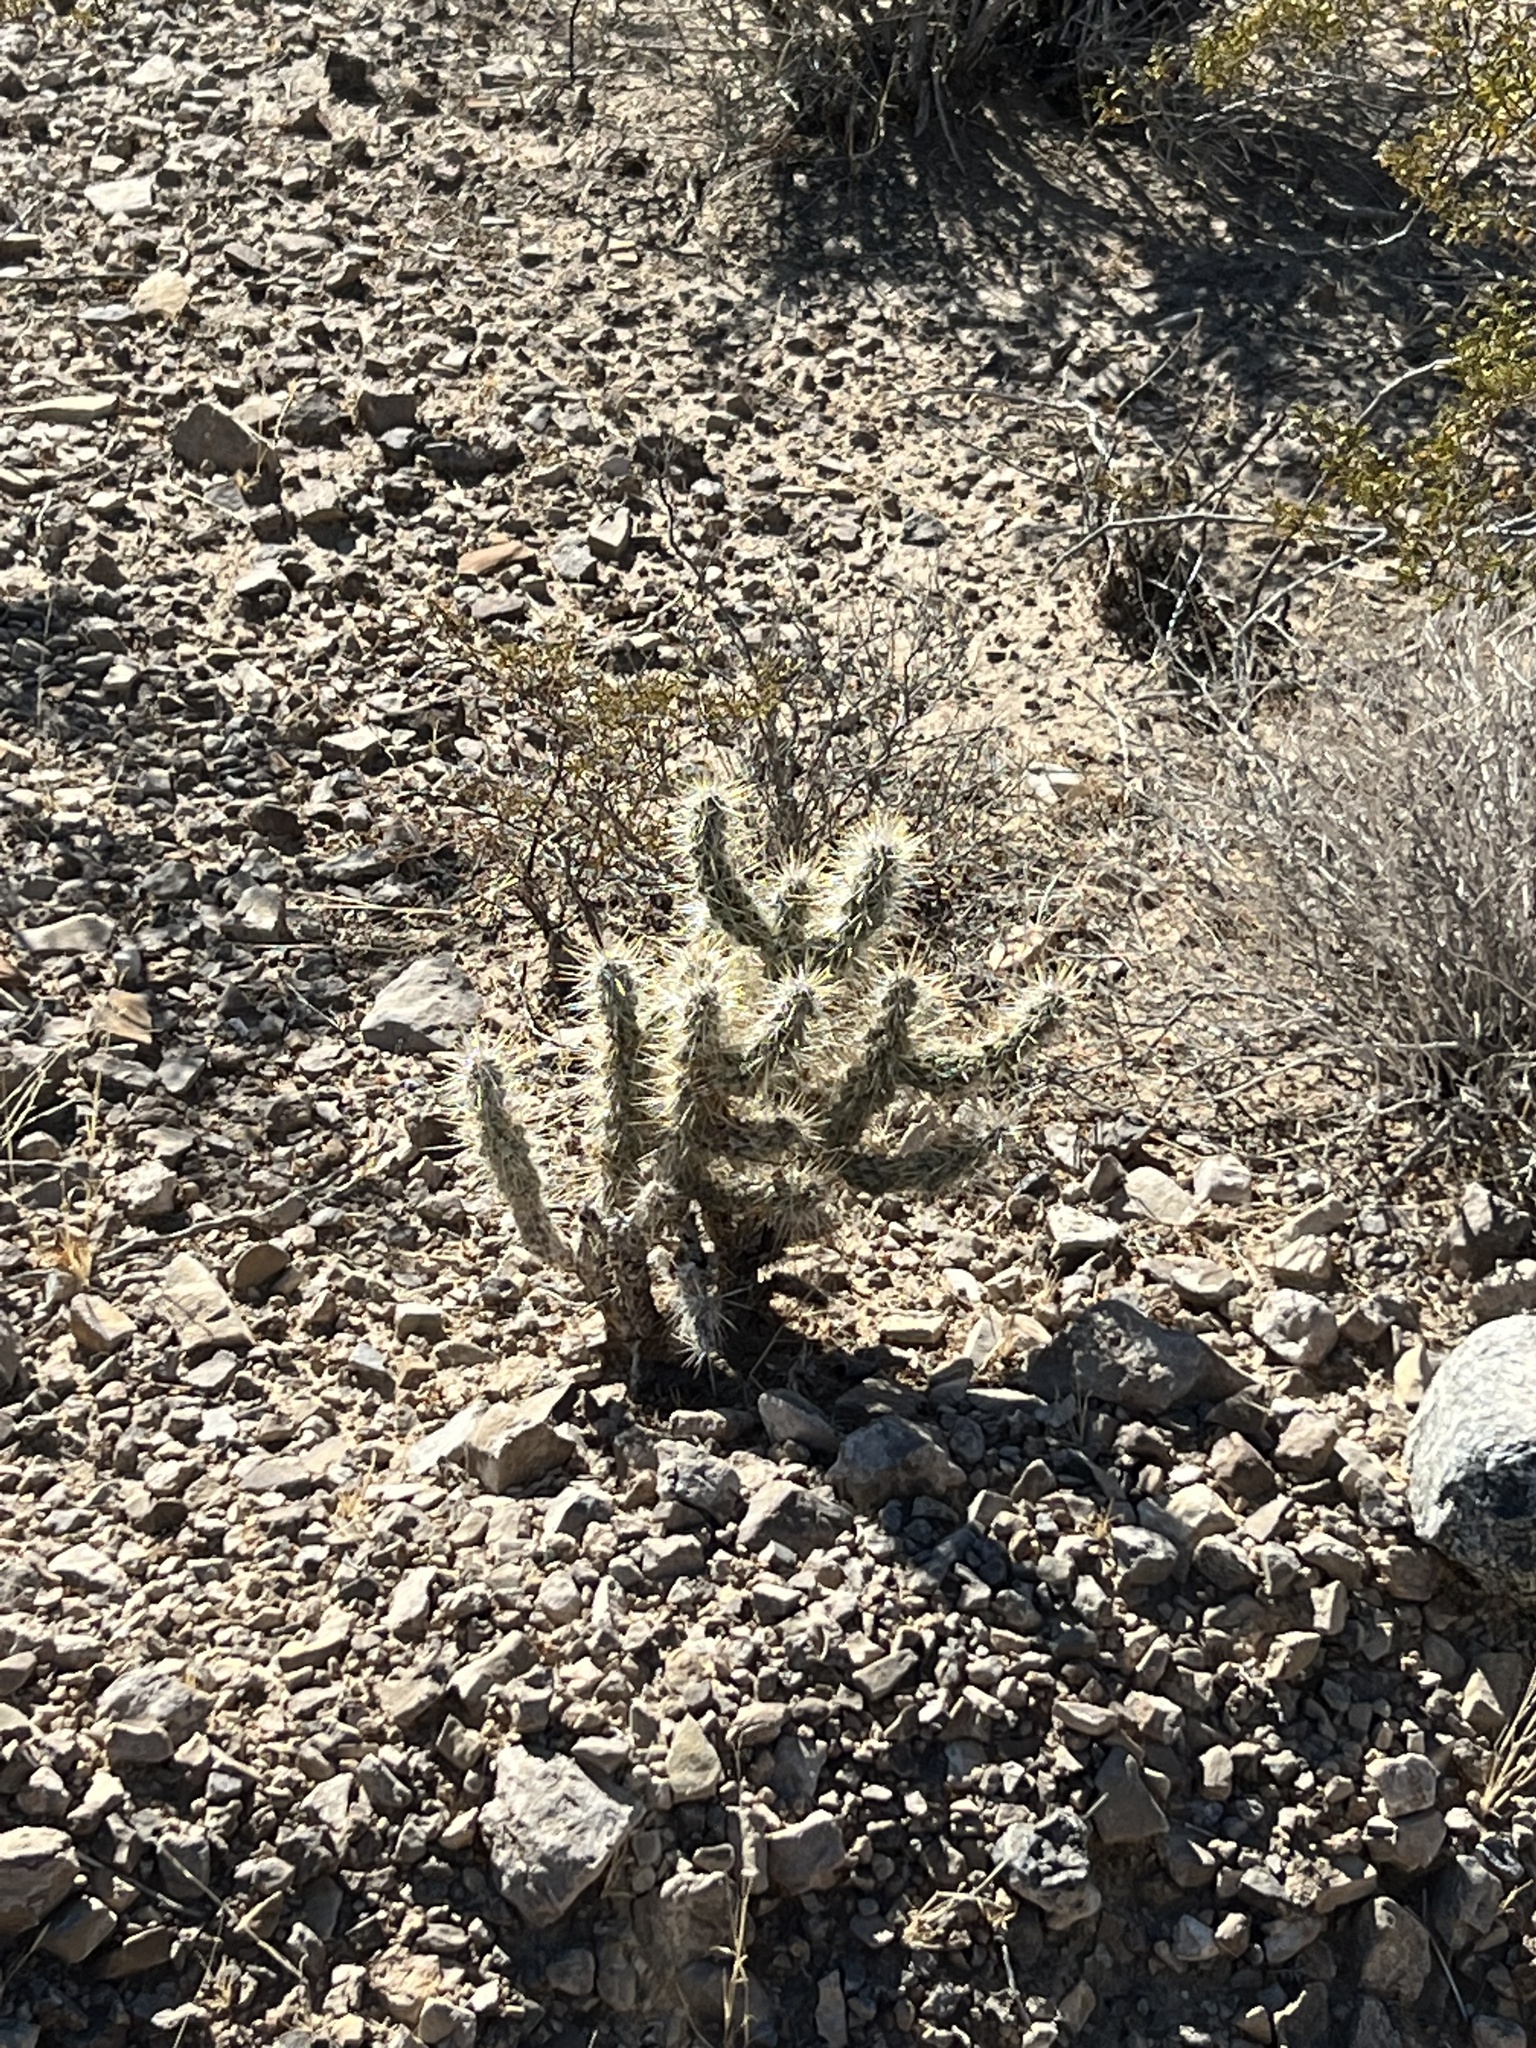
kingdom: Plantae
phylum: Tracheophyta
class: Magnoliopsida
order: Caryophyllales
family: Cactaceae
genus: Cylindropuntia
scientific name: Cylindropuntia echinocarpa
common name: Ground cholla
